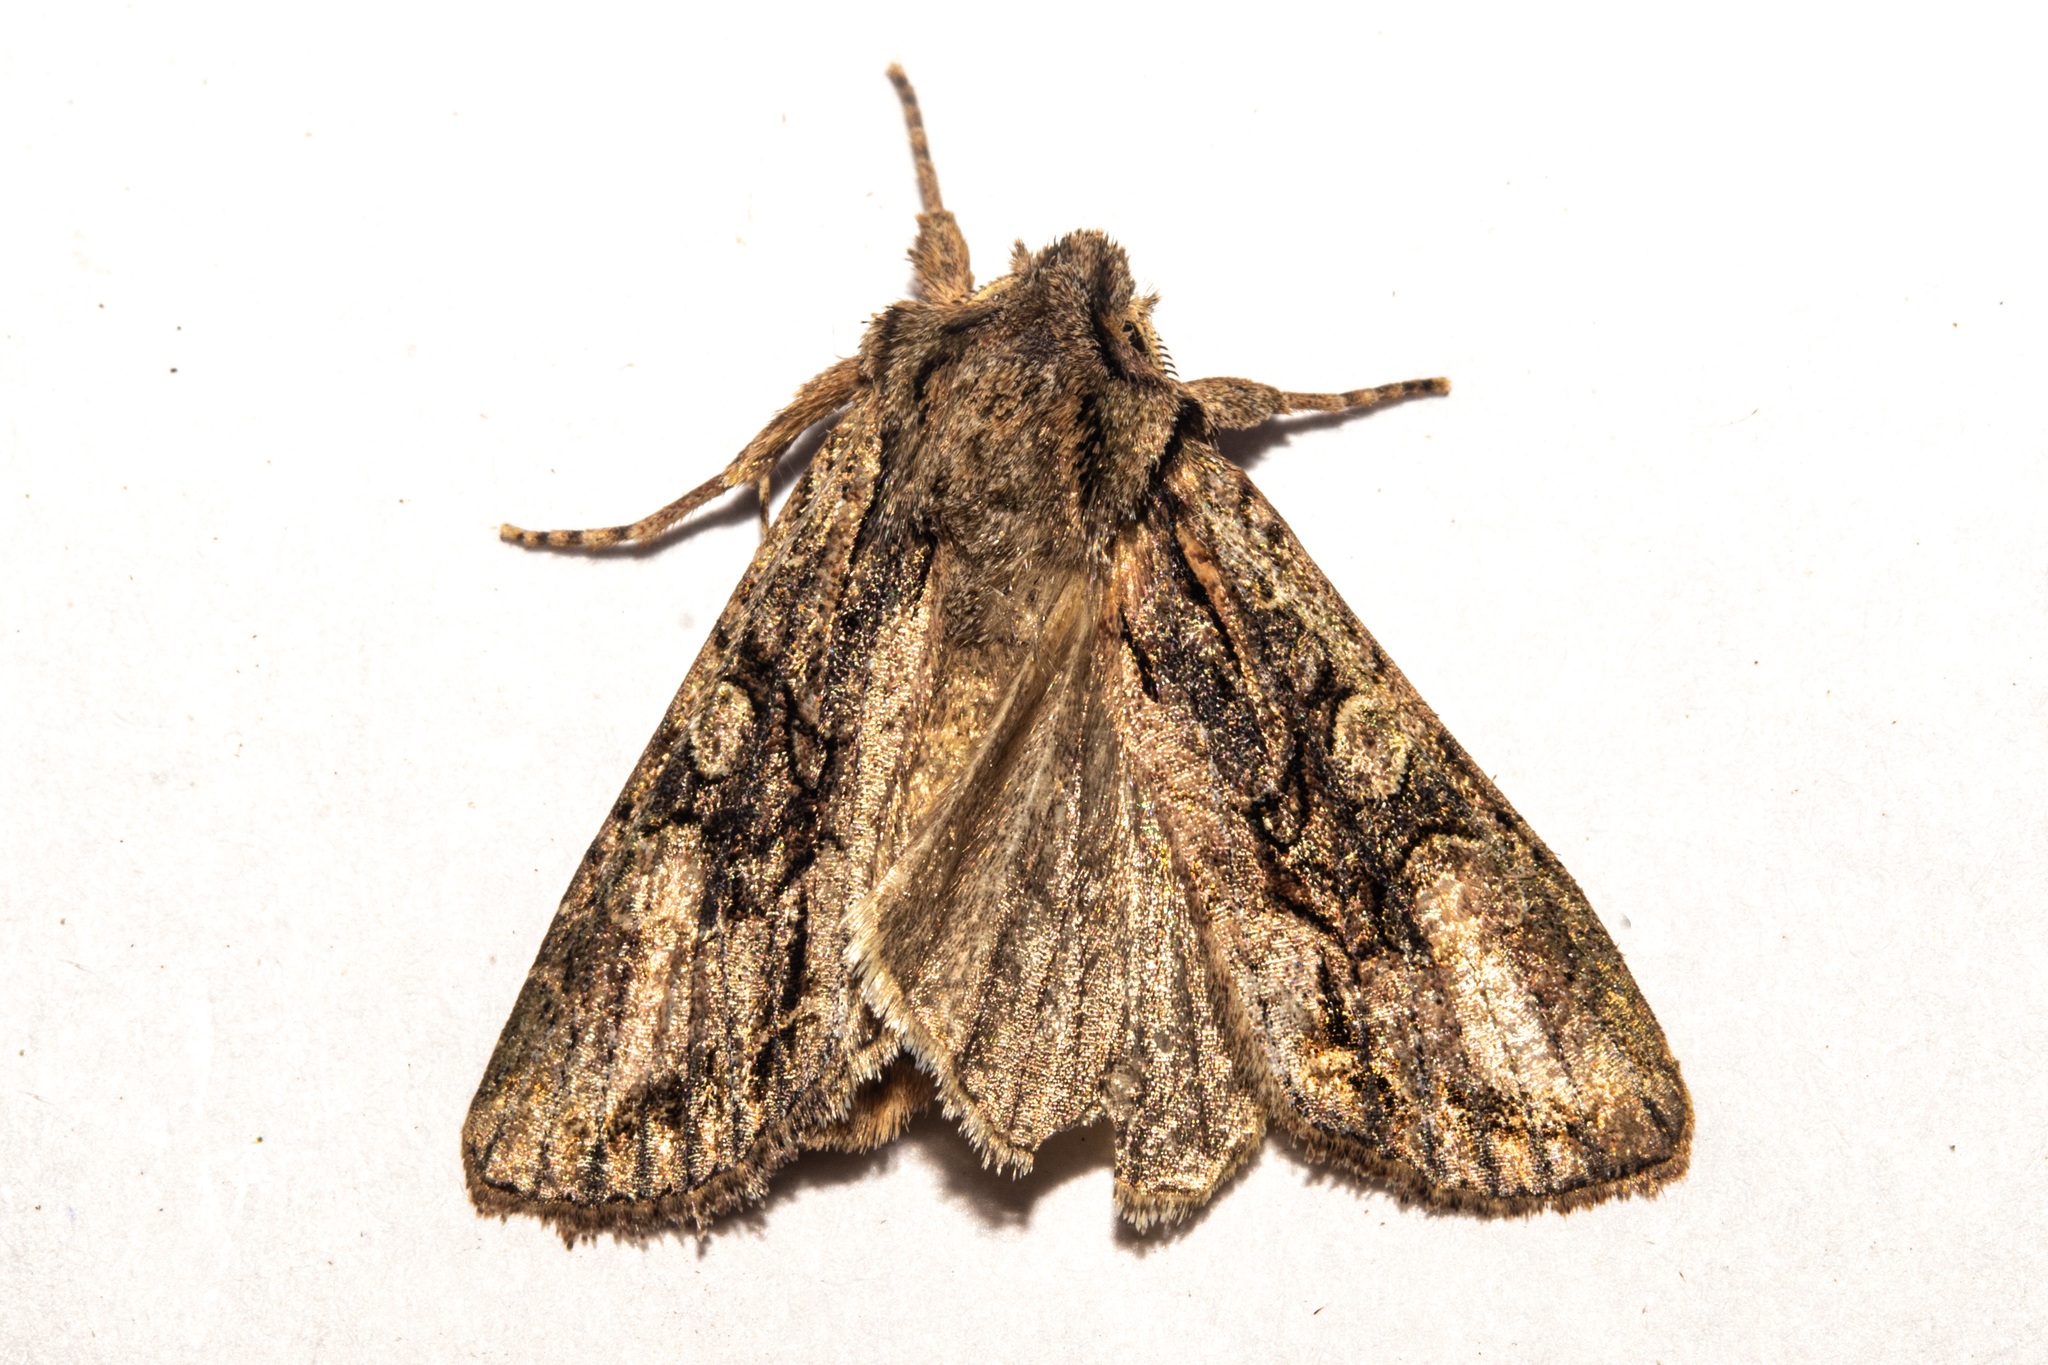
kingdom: Animalia
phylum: Arthropoda
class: Insecta
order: Lepidoptera
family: Noctuidae
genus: Ichneutica
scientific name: Ichneutica mutans
